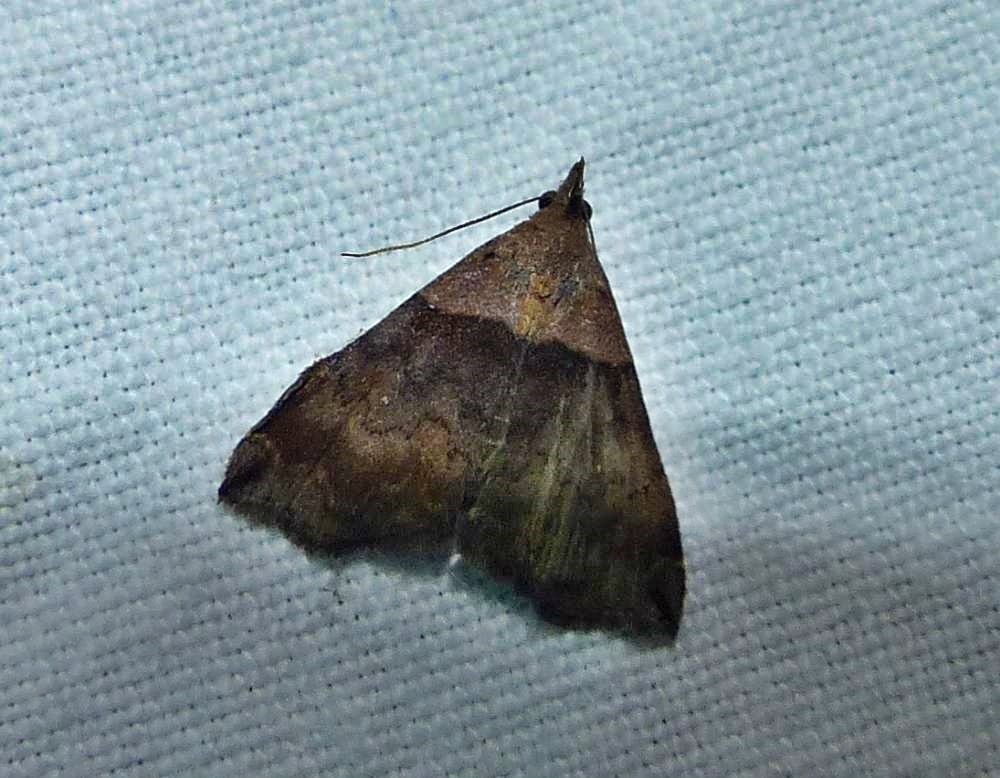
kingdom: Animalia
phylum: Arthropoda
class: Insecta
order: Lepidoptera
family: Erebidae
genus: Lascoria
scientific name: Lascoria ambigualis
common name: Ambiguous moth
